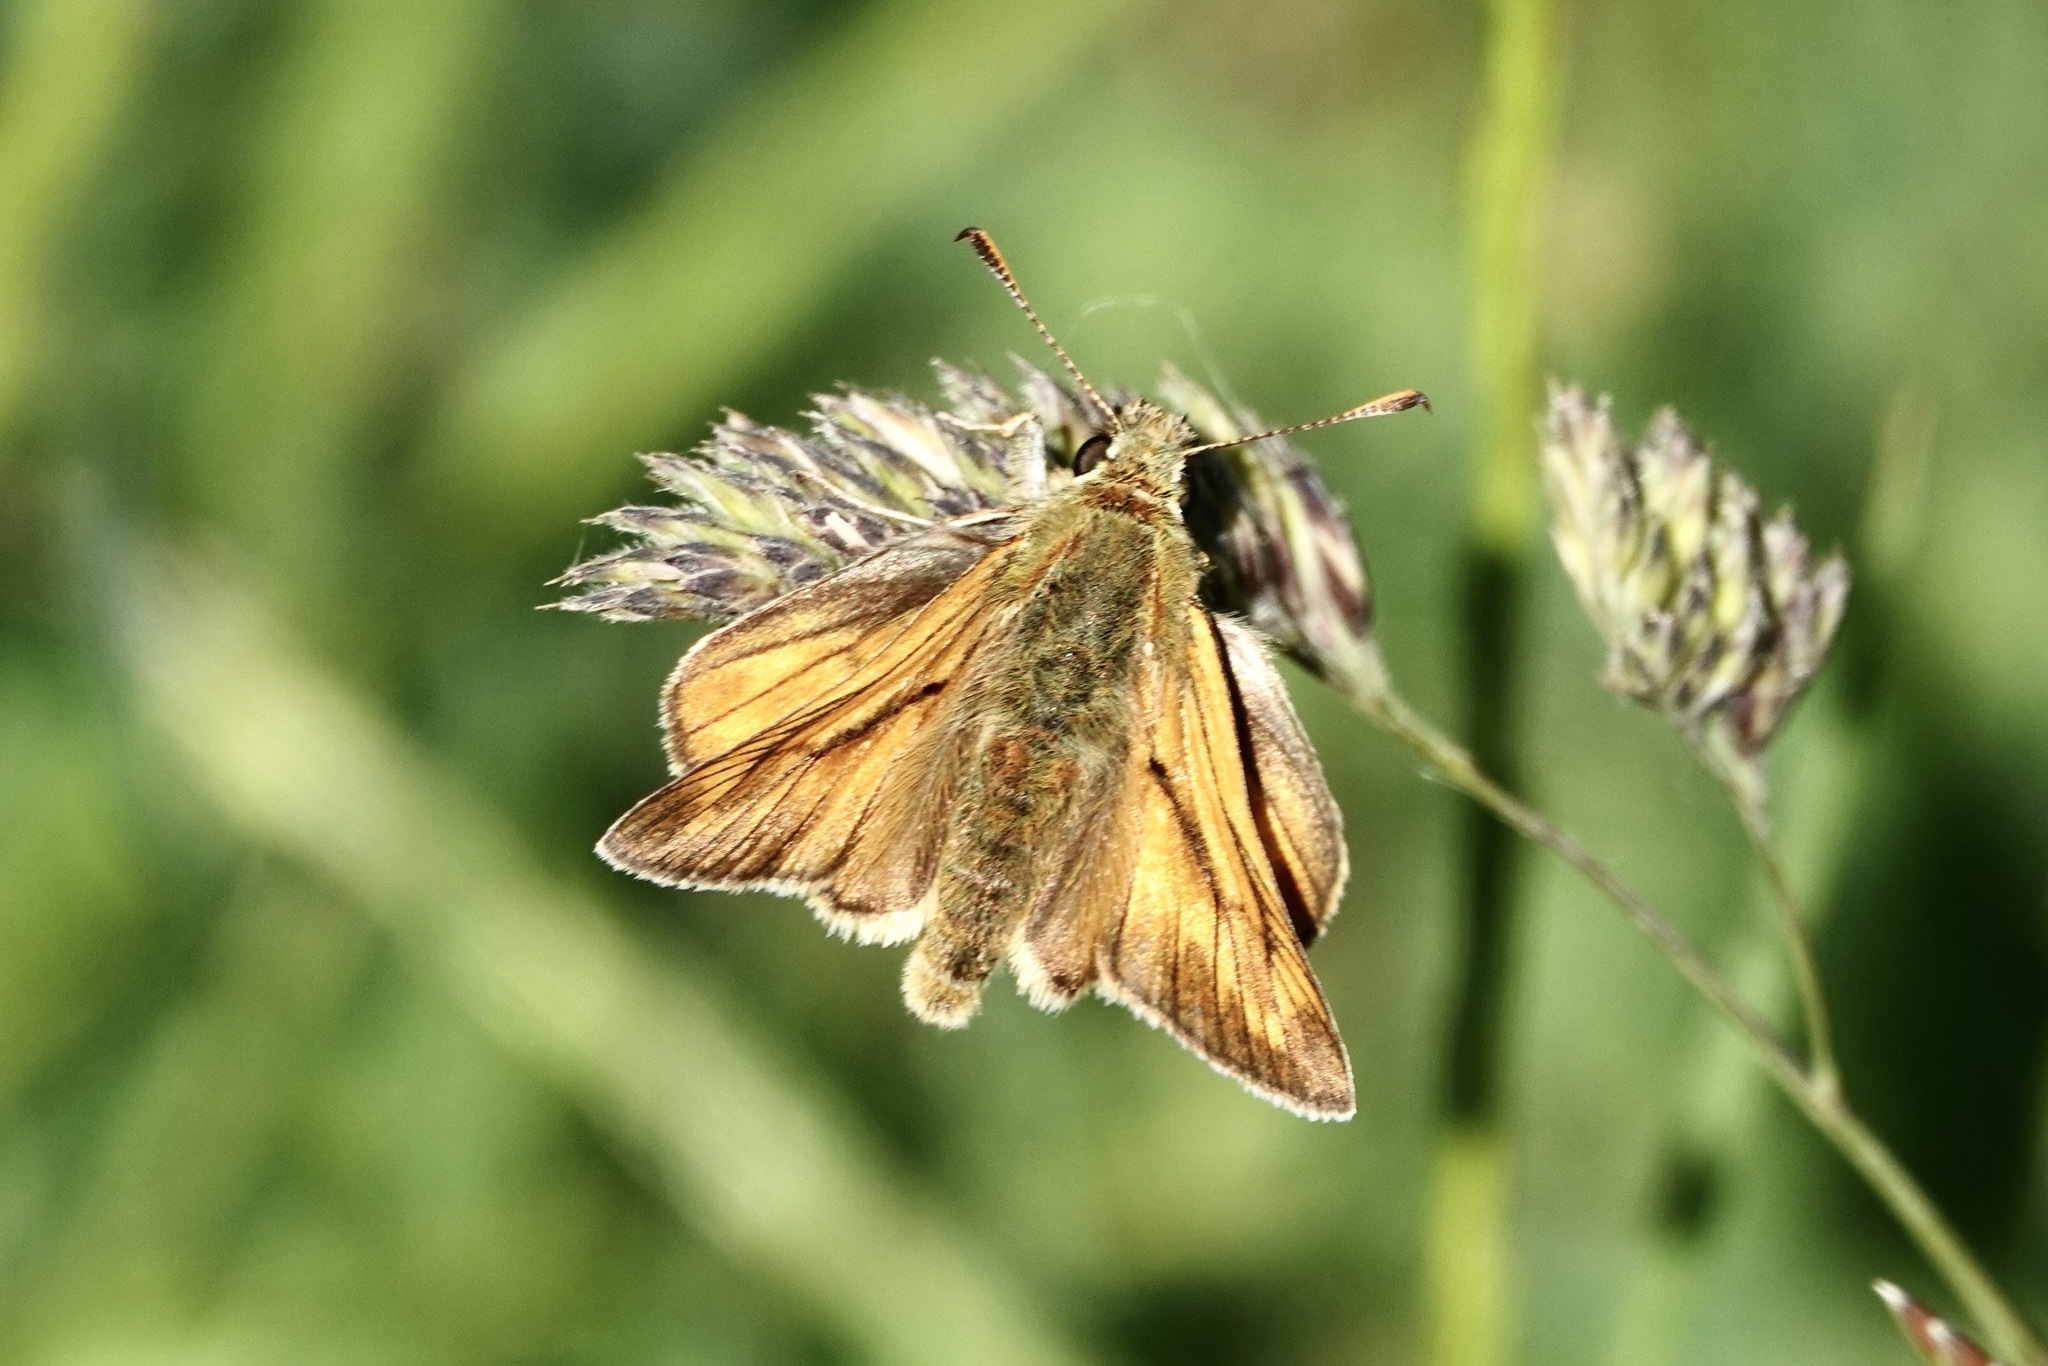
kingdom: Animalia
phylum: Arthropoda
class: Insecta
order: Lepidoptera
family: Hesperiidae
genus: Ochlodes
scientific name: Ochlodes venata
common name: Large skipper
